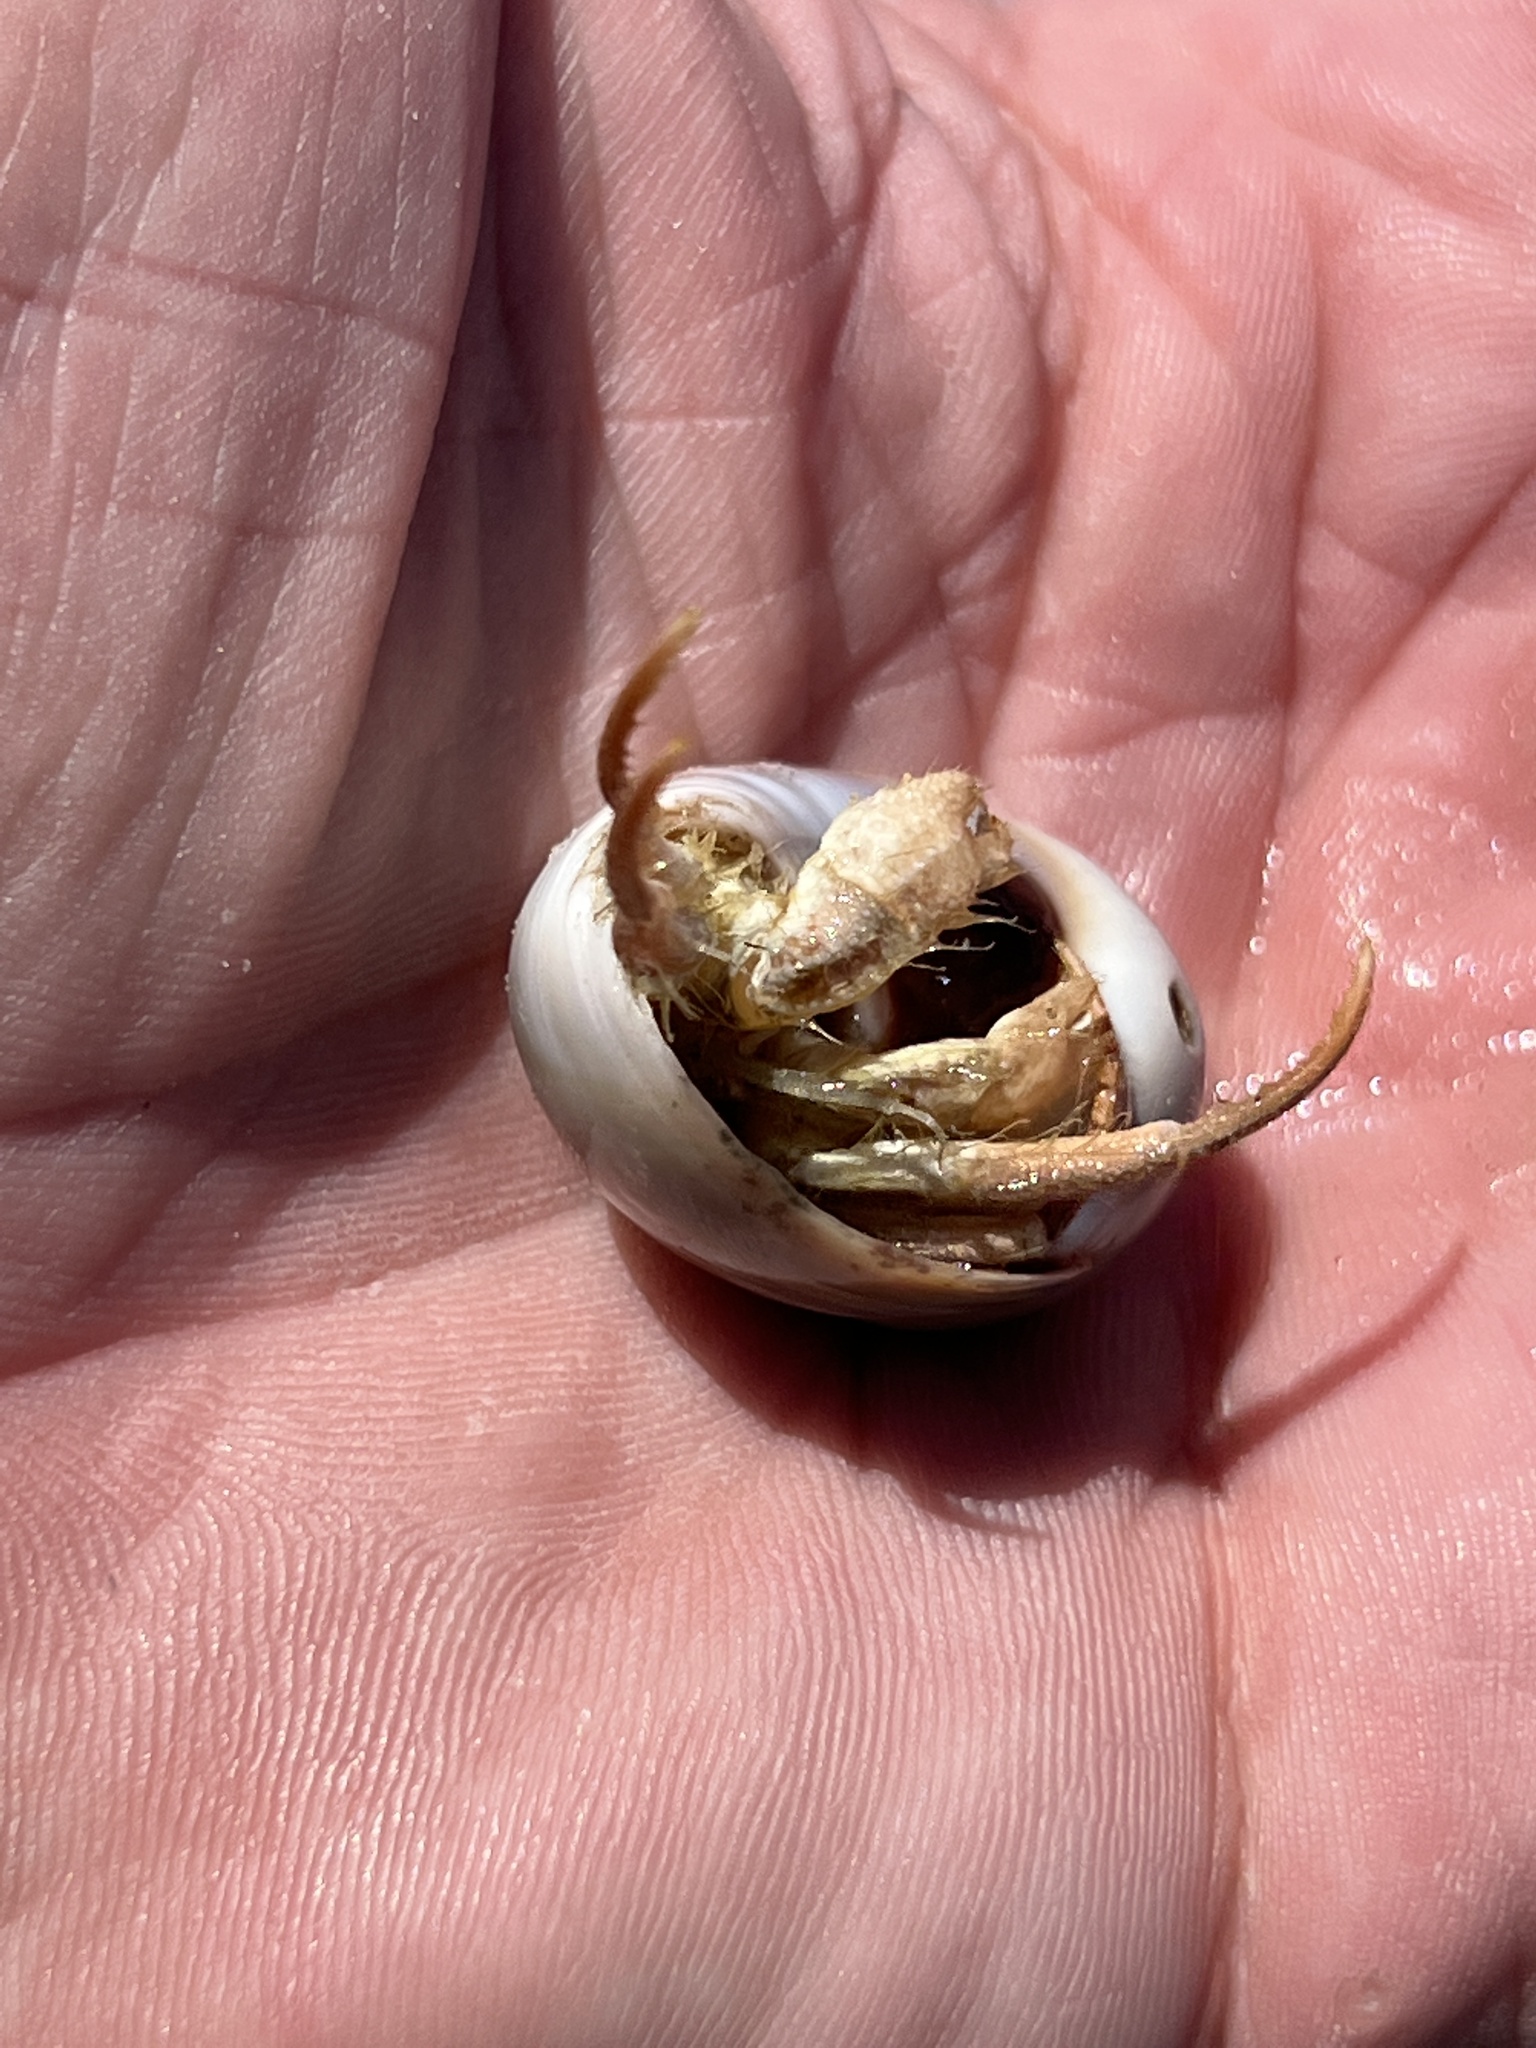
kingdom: Animalia
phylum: Arthropoda
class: Malacostraca
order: Decapoda
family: Diogenidae
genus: Isocheles
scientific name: Isocheles wurdemanni
